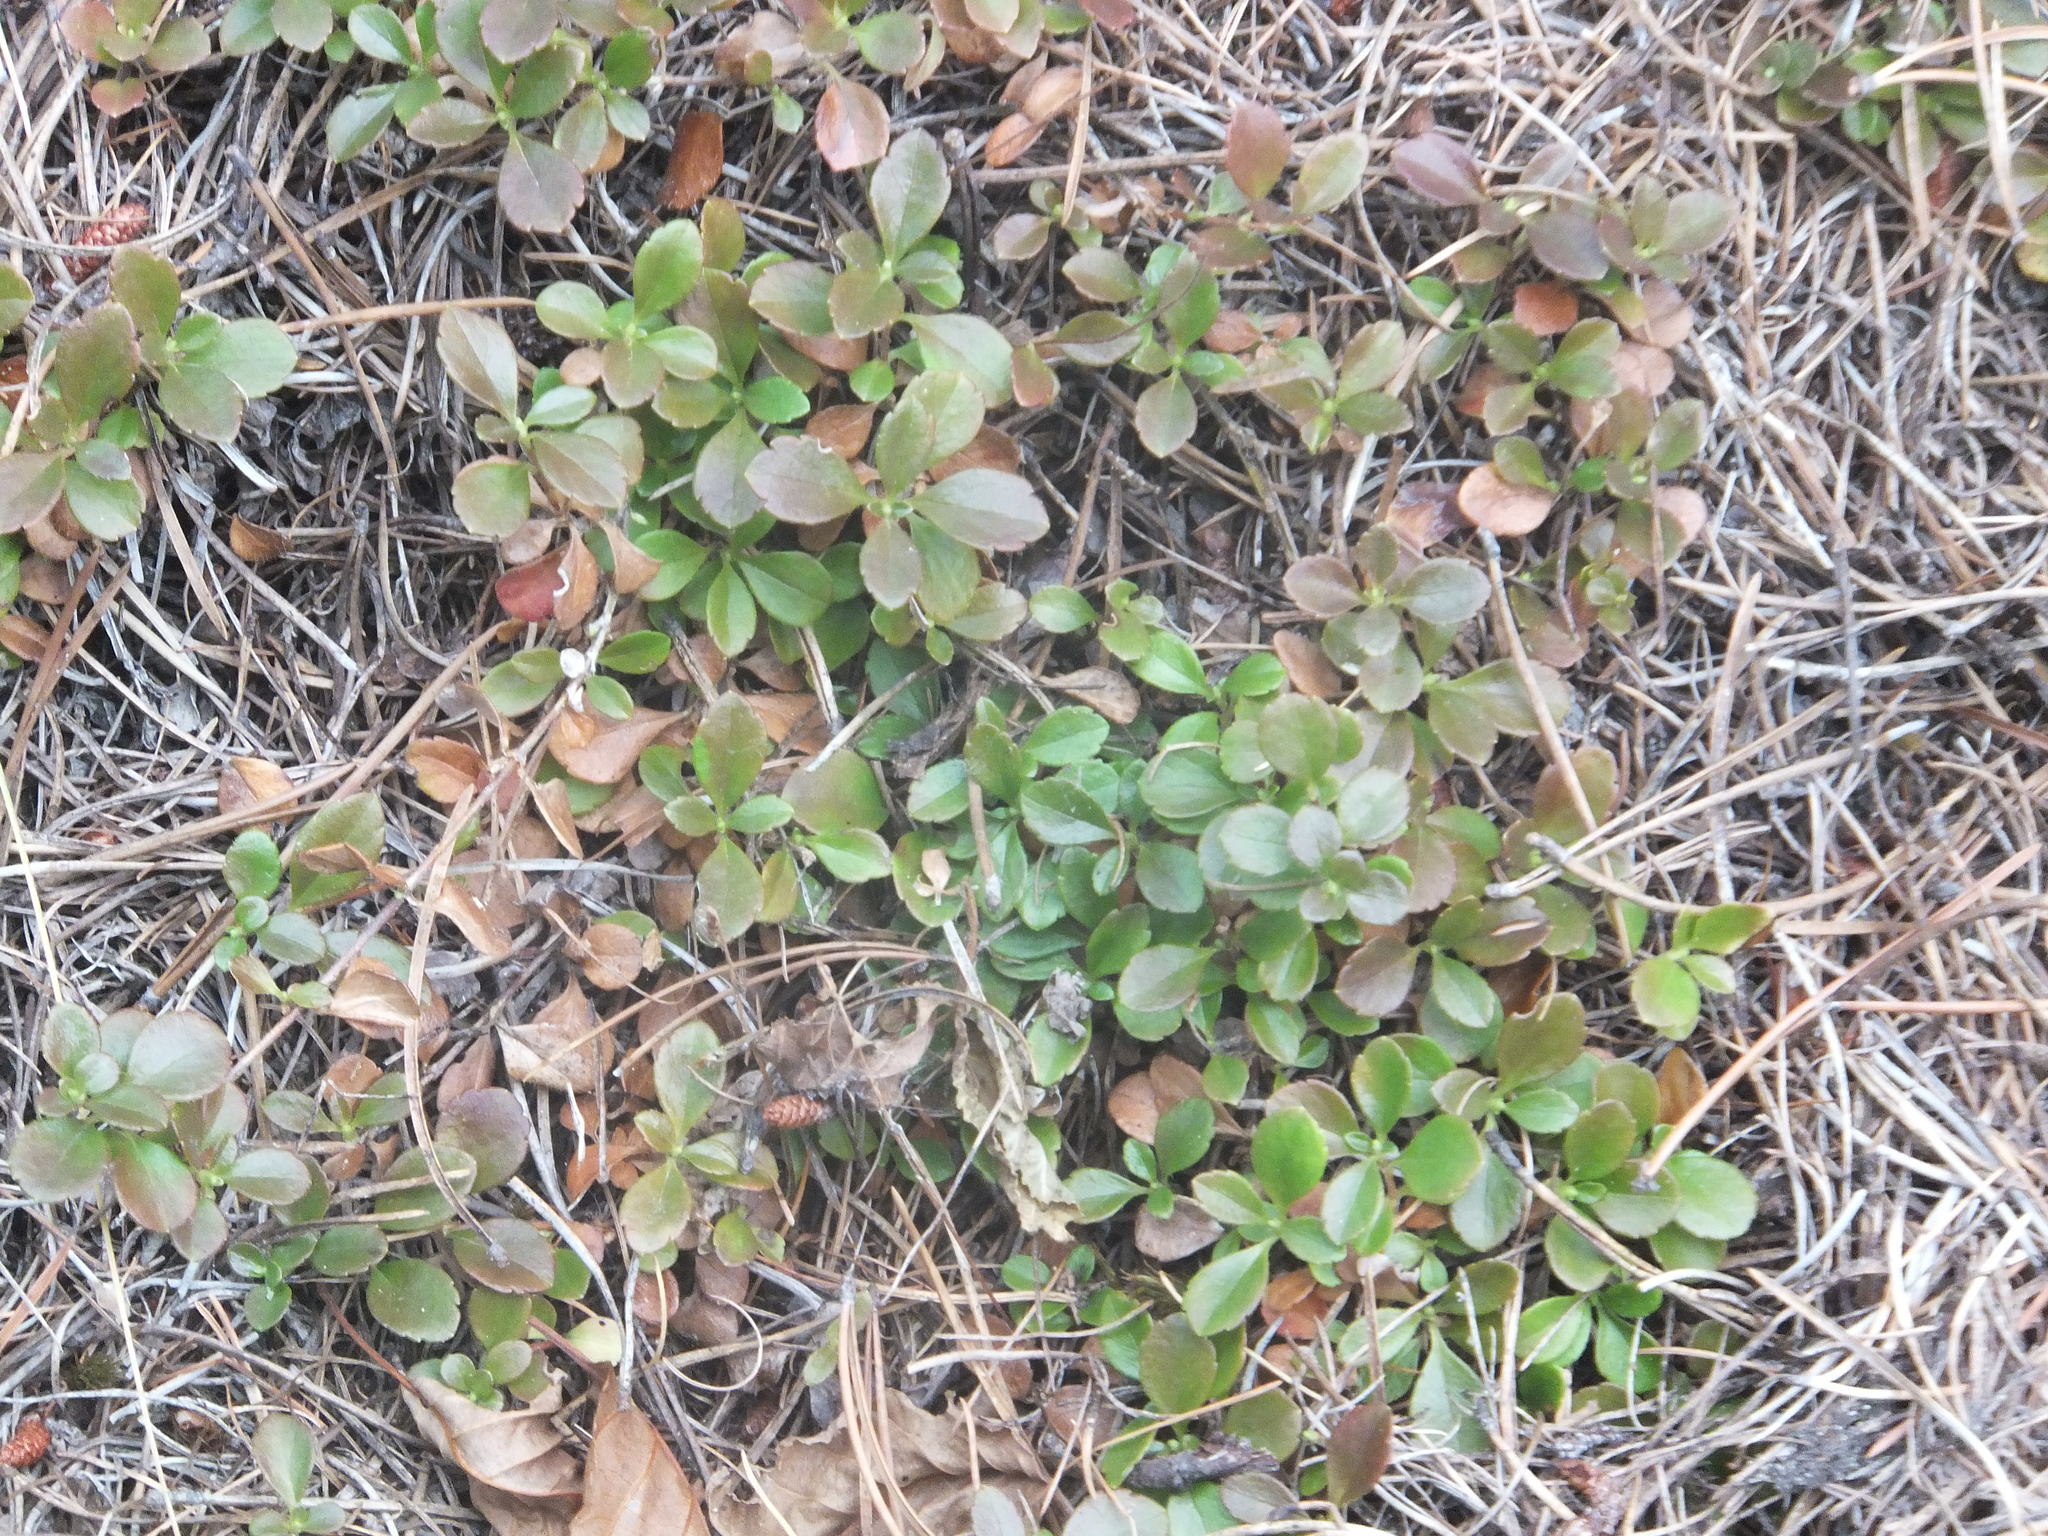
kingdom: Plantae
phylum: Tracheophyta
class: Magnoliopsida
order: Dipsacales
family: Caprifoliaceae
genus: Linnaea
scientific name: Linnaea borealis
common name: Twinflower
